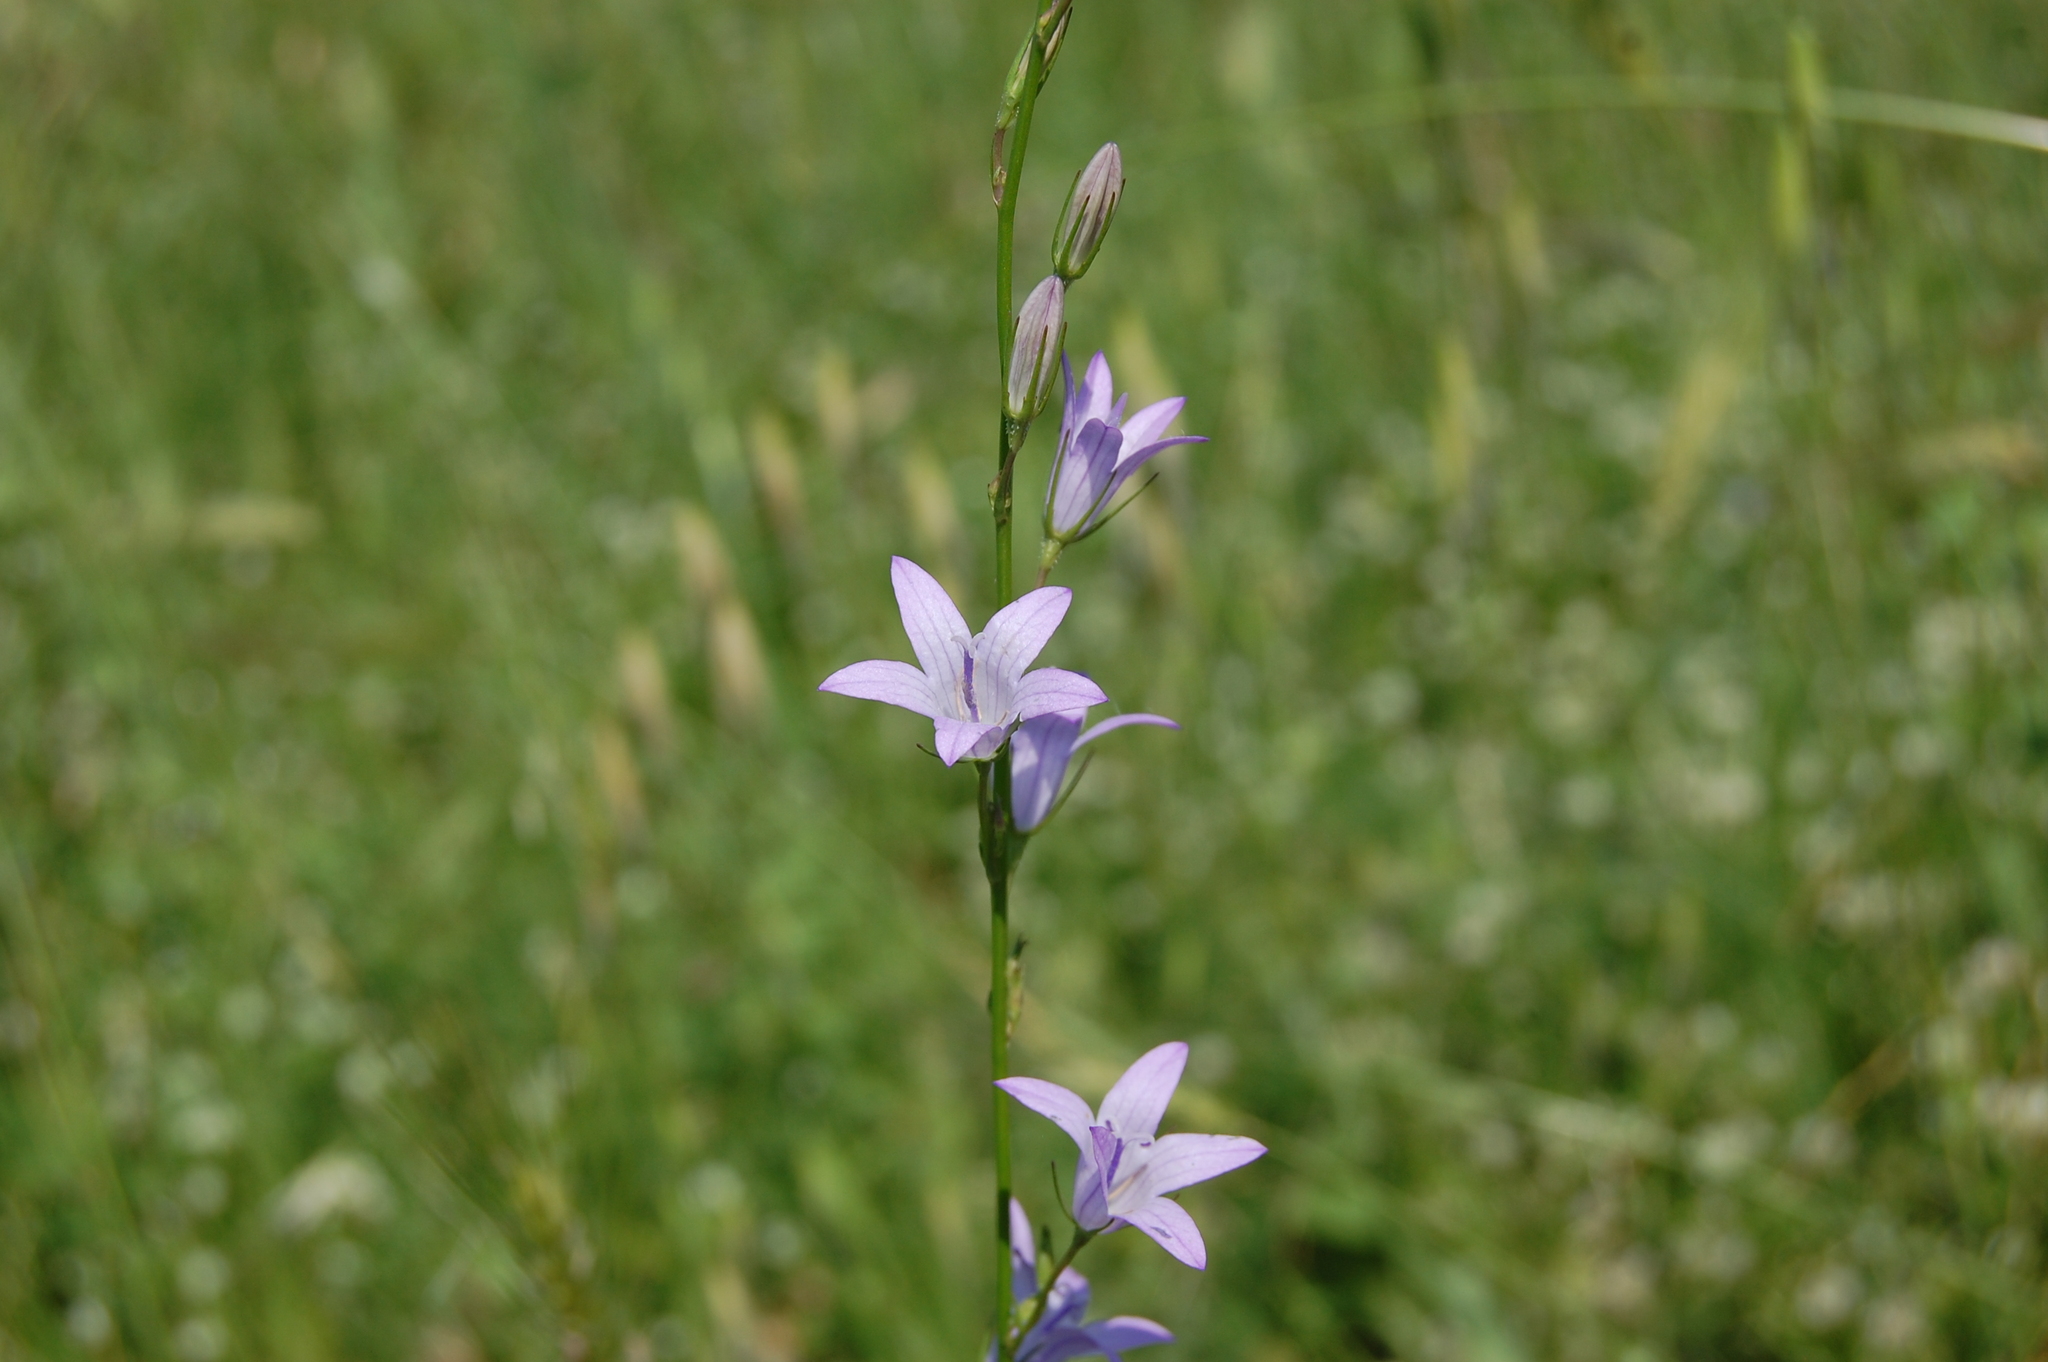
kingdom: Plantae
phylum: Tracheophyta
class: Magnoliopsida
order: Asterales
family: Campanulaceae
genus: Campanula
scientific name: Campanula rapunculus
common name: Rampion bellflower
